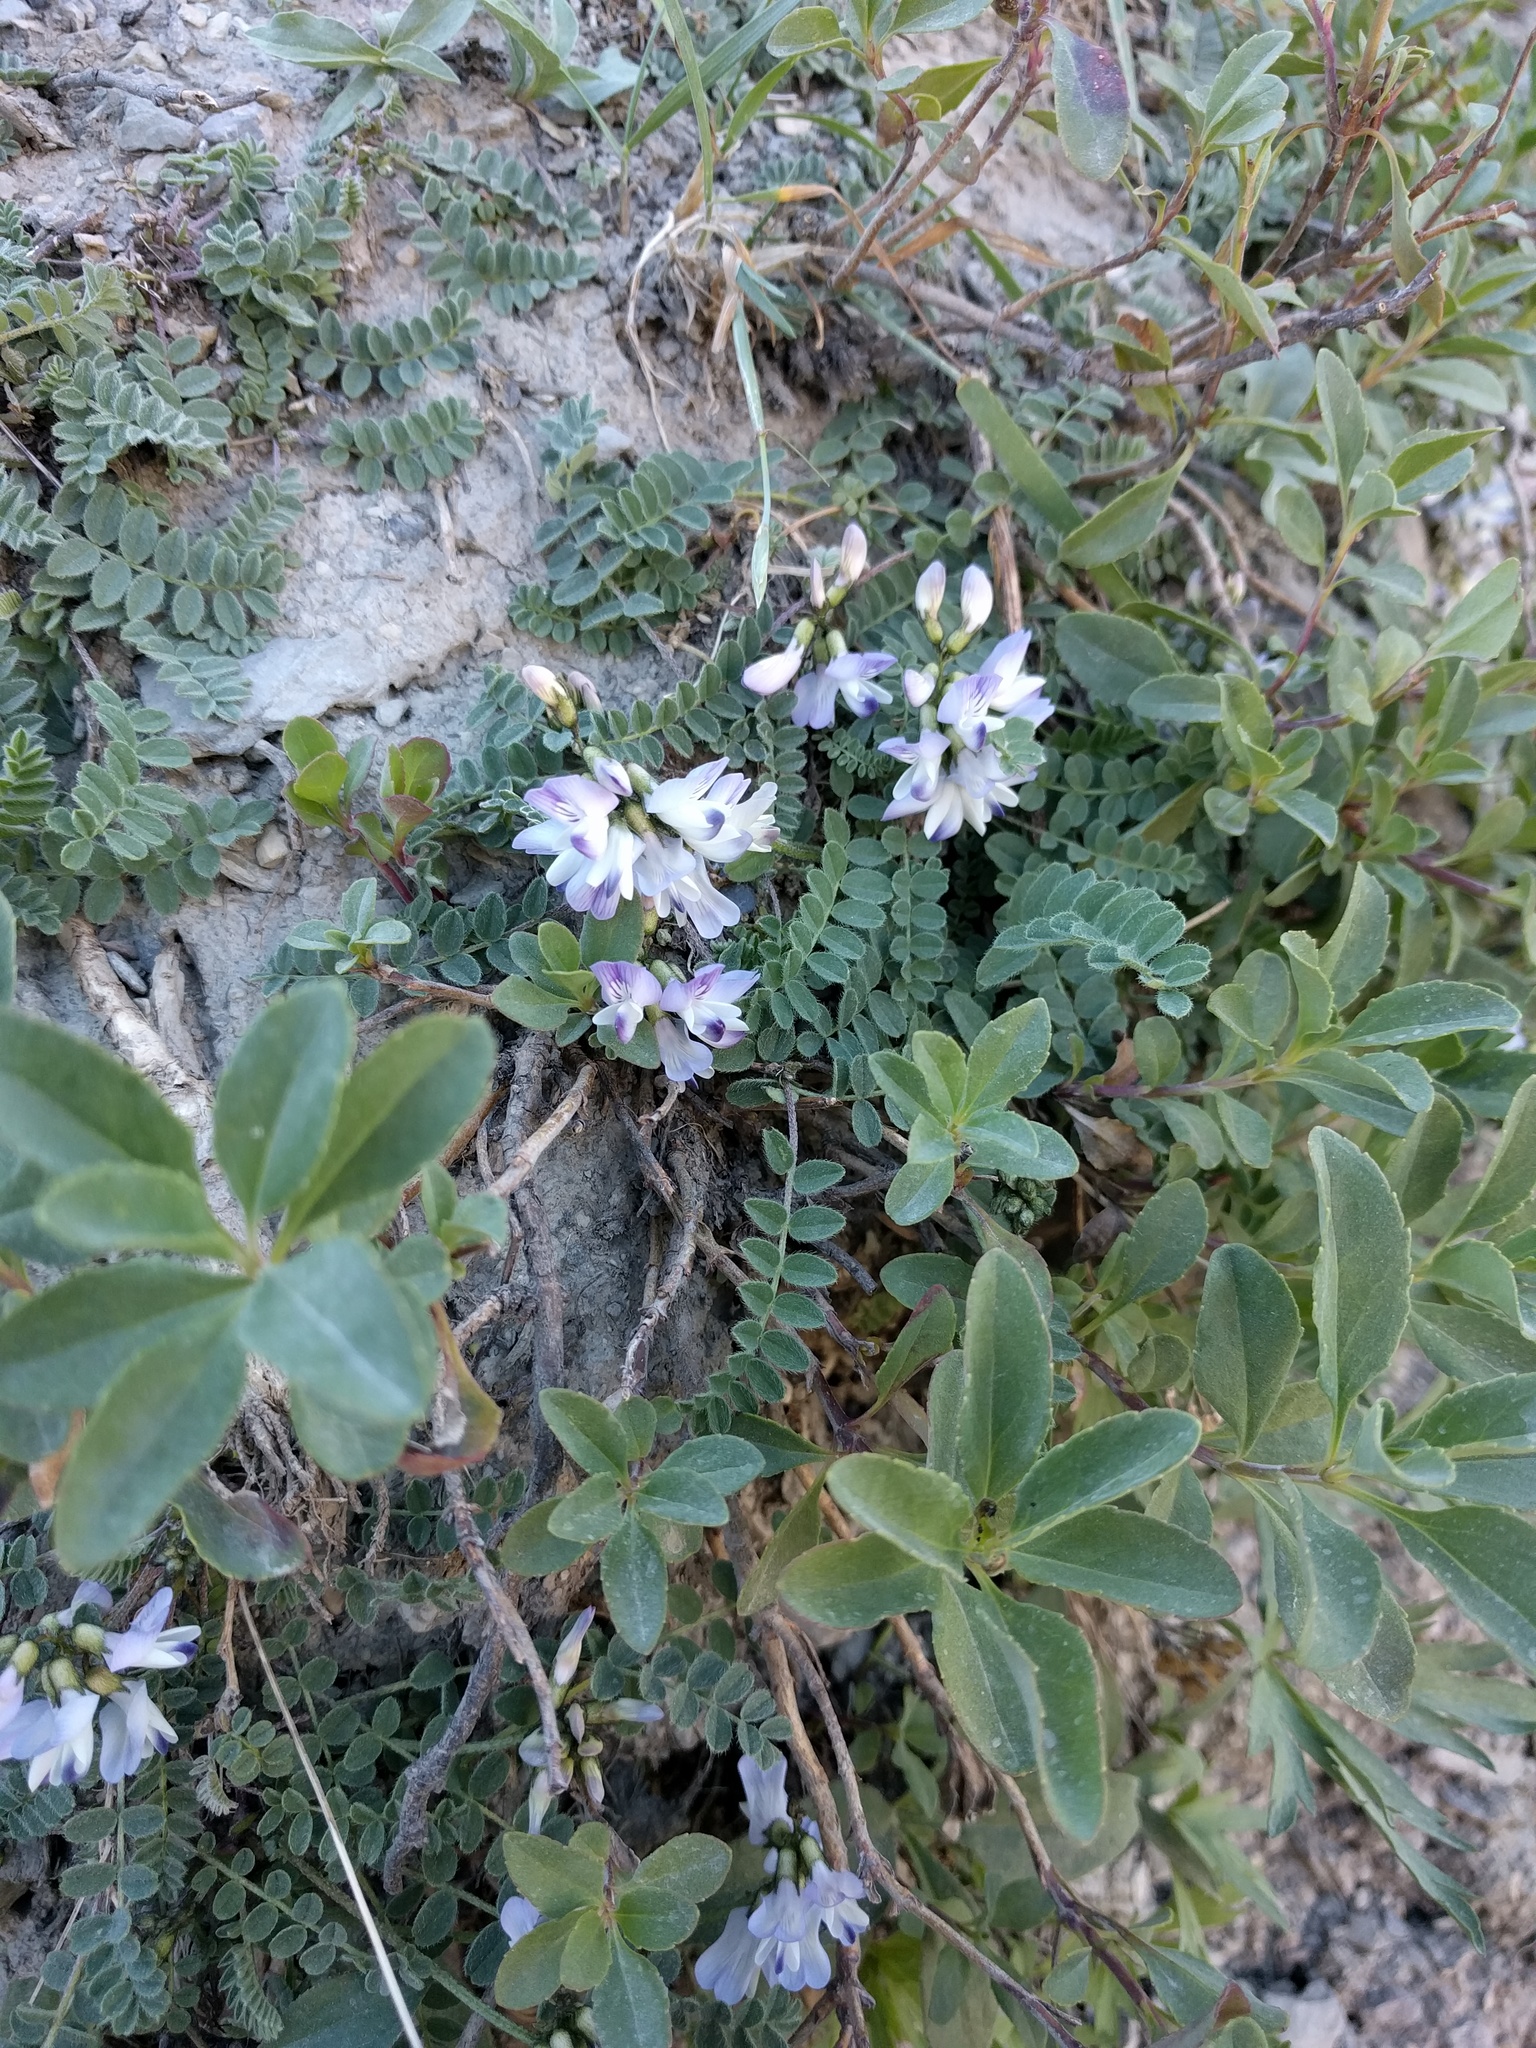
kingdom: Plantae
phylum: Tracheophyta
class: Magnoliopsida
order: Fabales
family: Fabaceae
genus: Astragalus
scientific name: Astragalus alpinus
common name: Alpine milk-vetch
